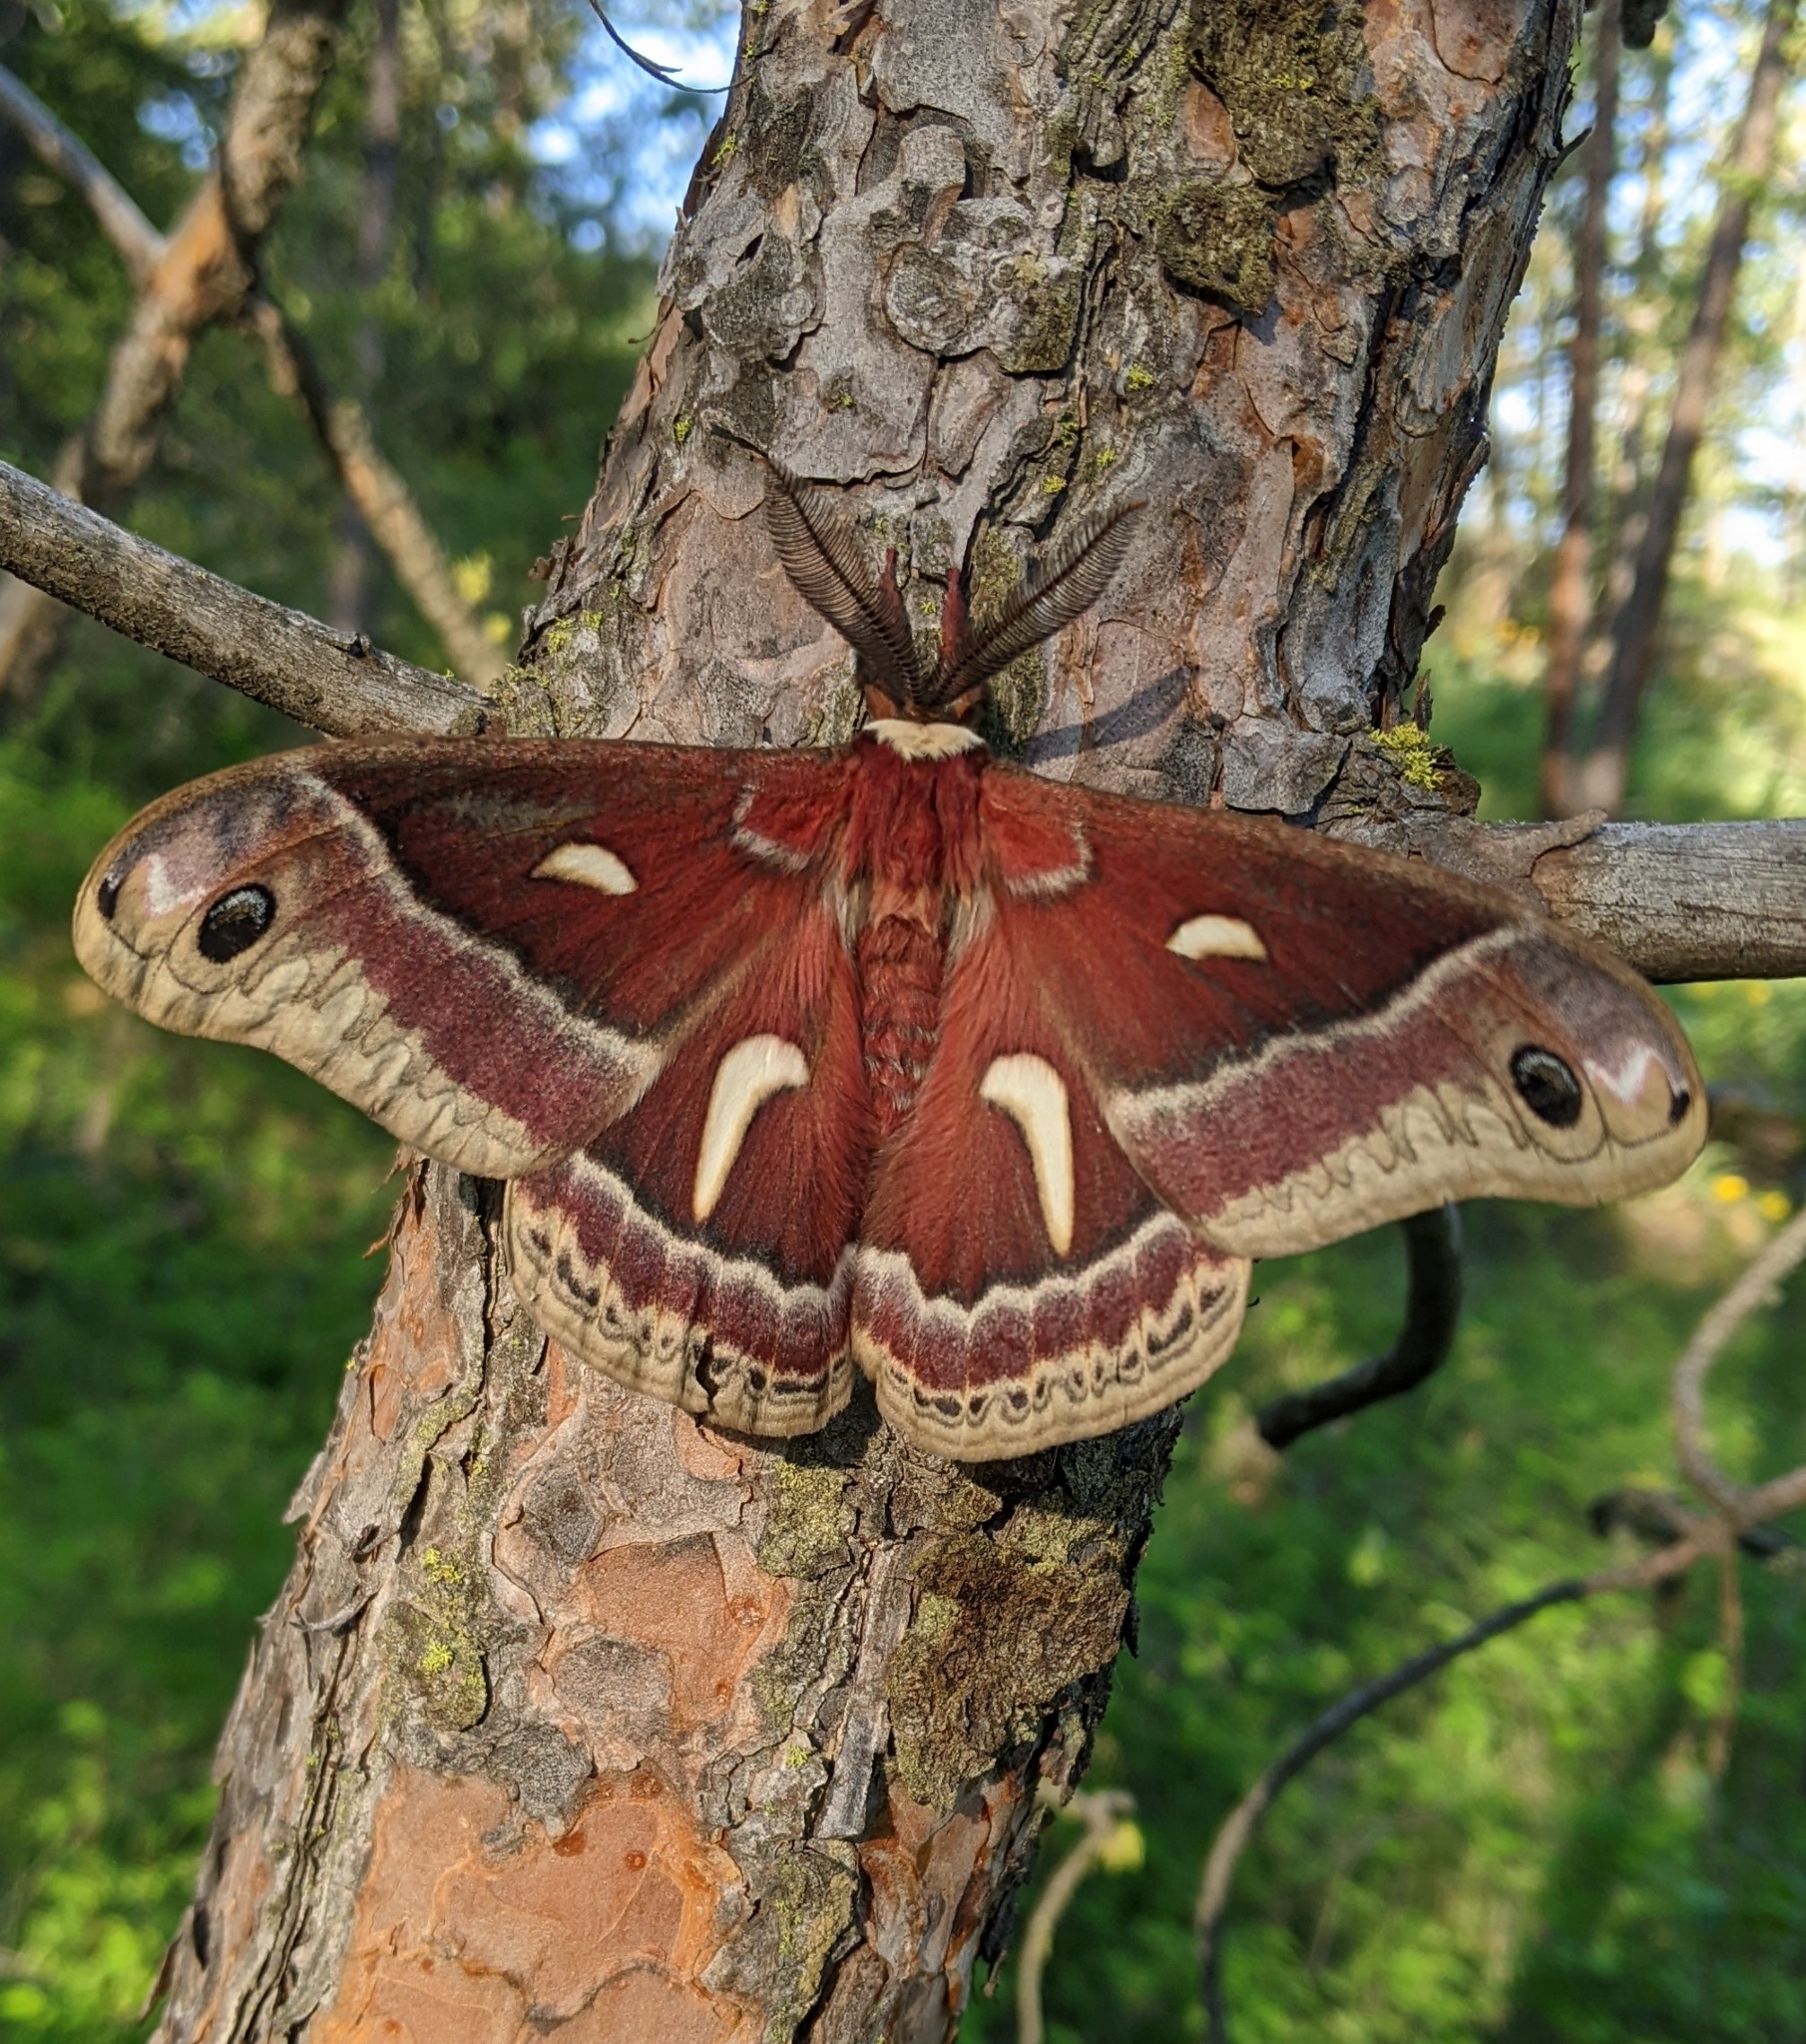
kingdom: Animalia
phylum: Arthropoda
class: Insecta
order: Lepidoptera
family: Saturniidae
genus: Hyalophora
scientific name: Hyalophora euryalus
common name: Ceanothus silkmoth
